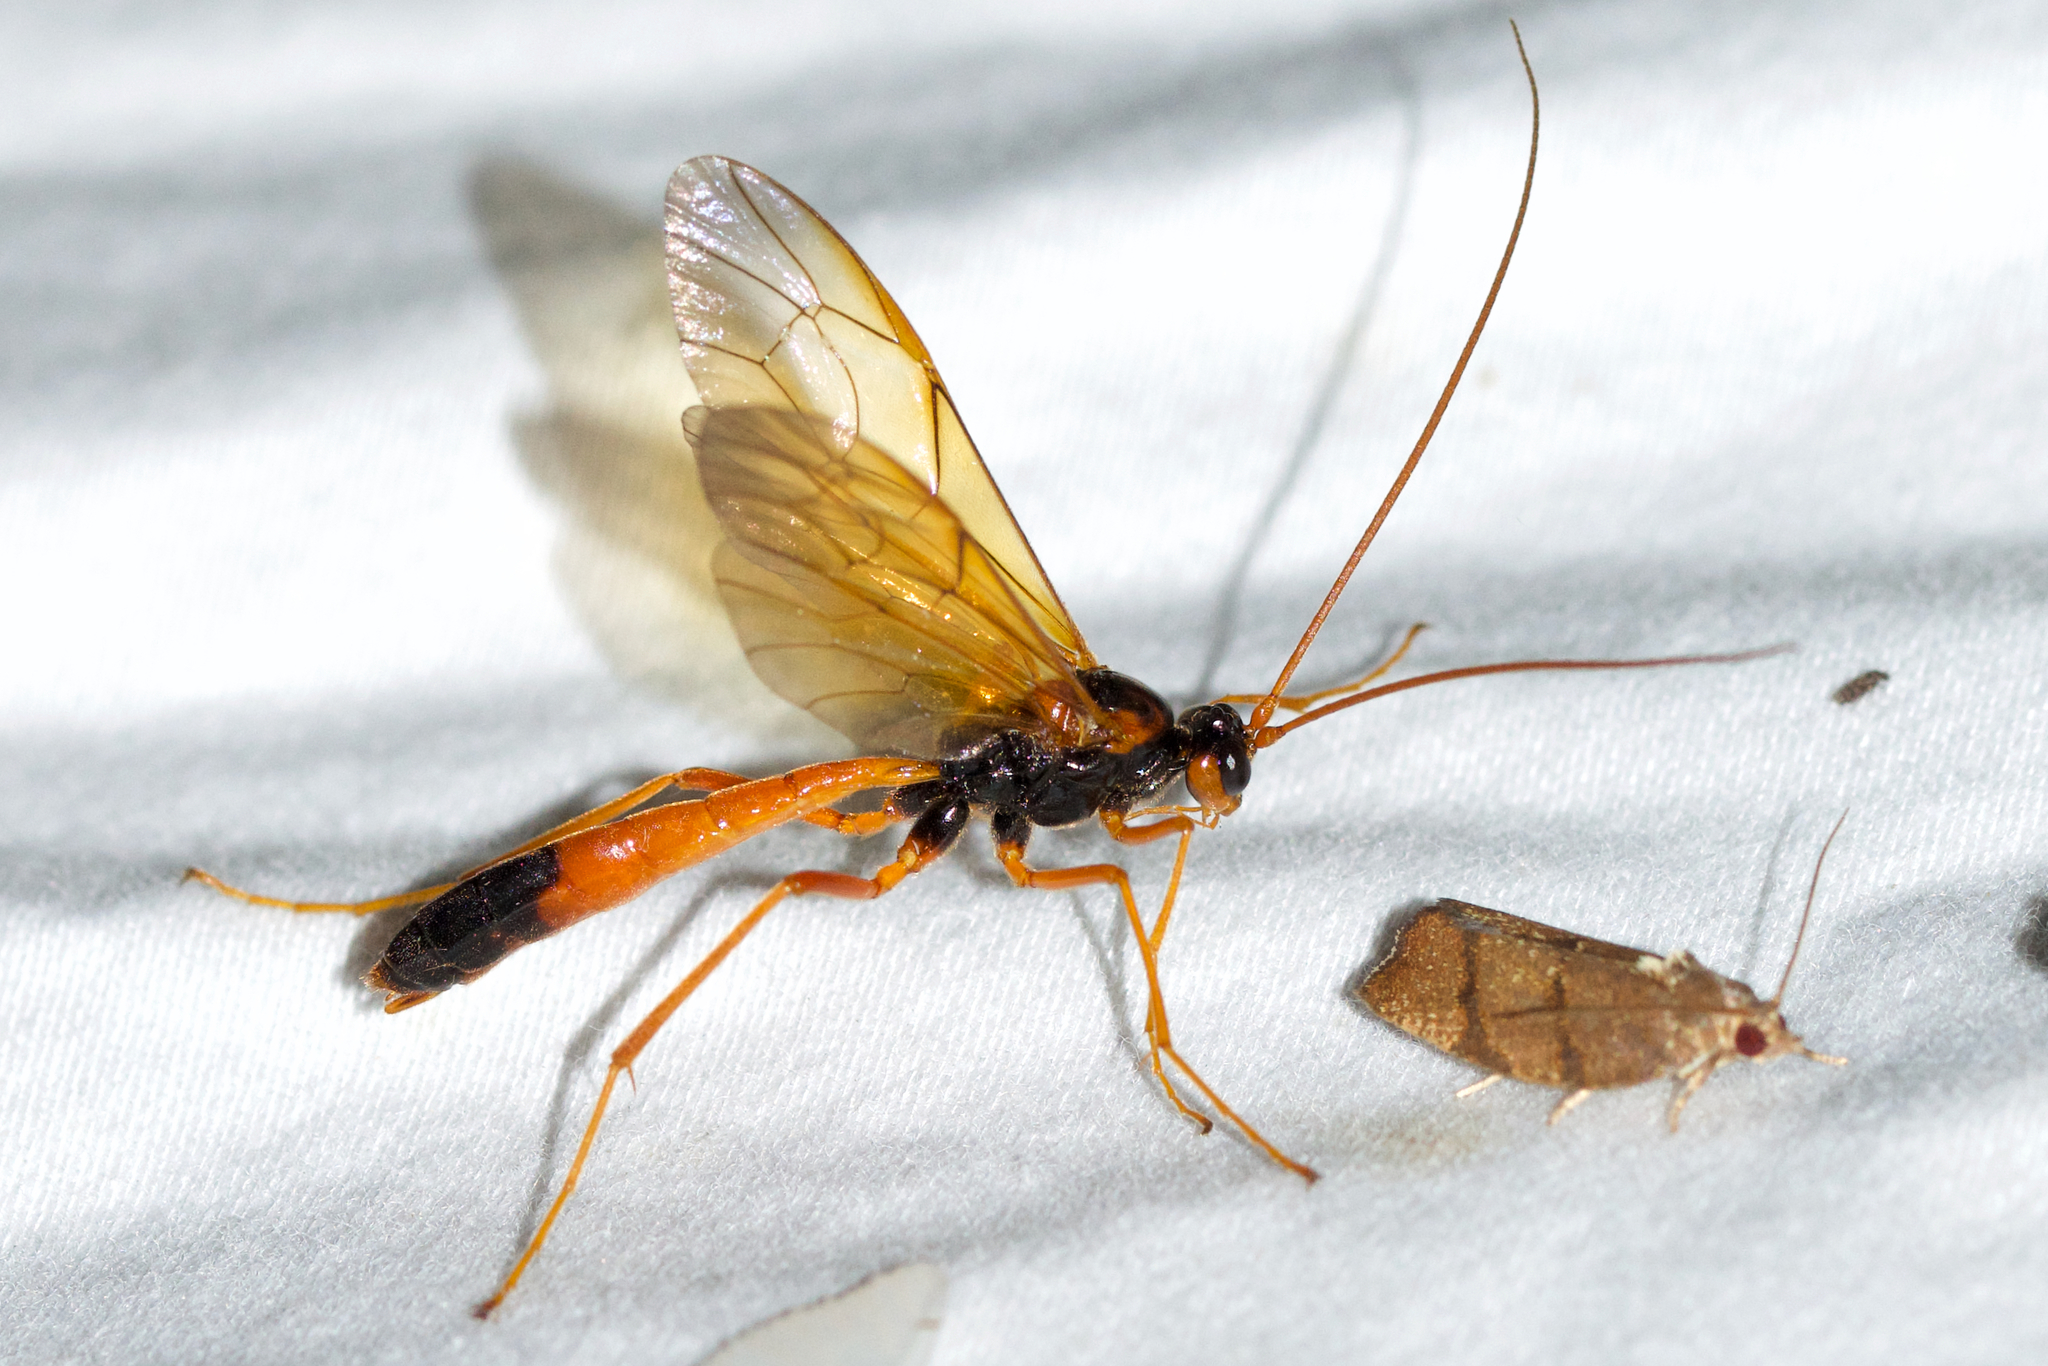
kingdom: Animalia
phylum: Arthropoda
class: Insecta
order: Hymenoptera
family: Ichneumonidae
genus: Opheltes
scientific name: Opheltes glaucopterus
